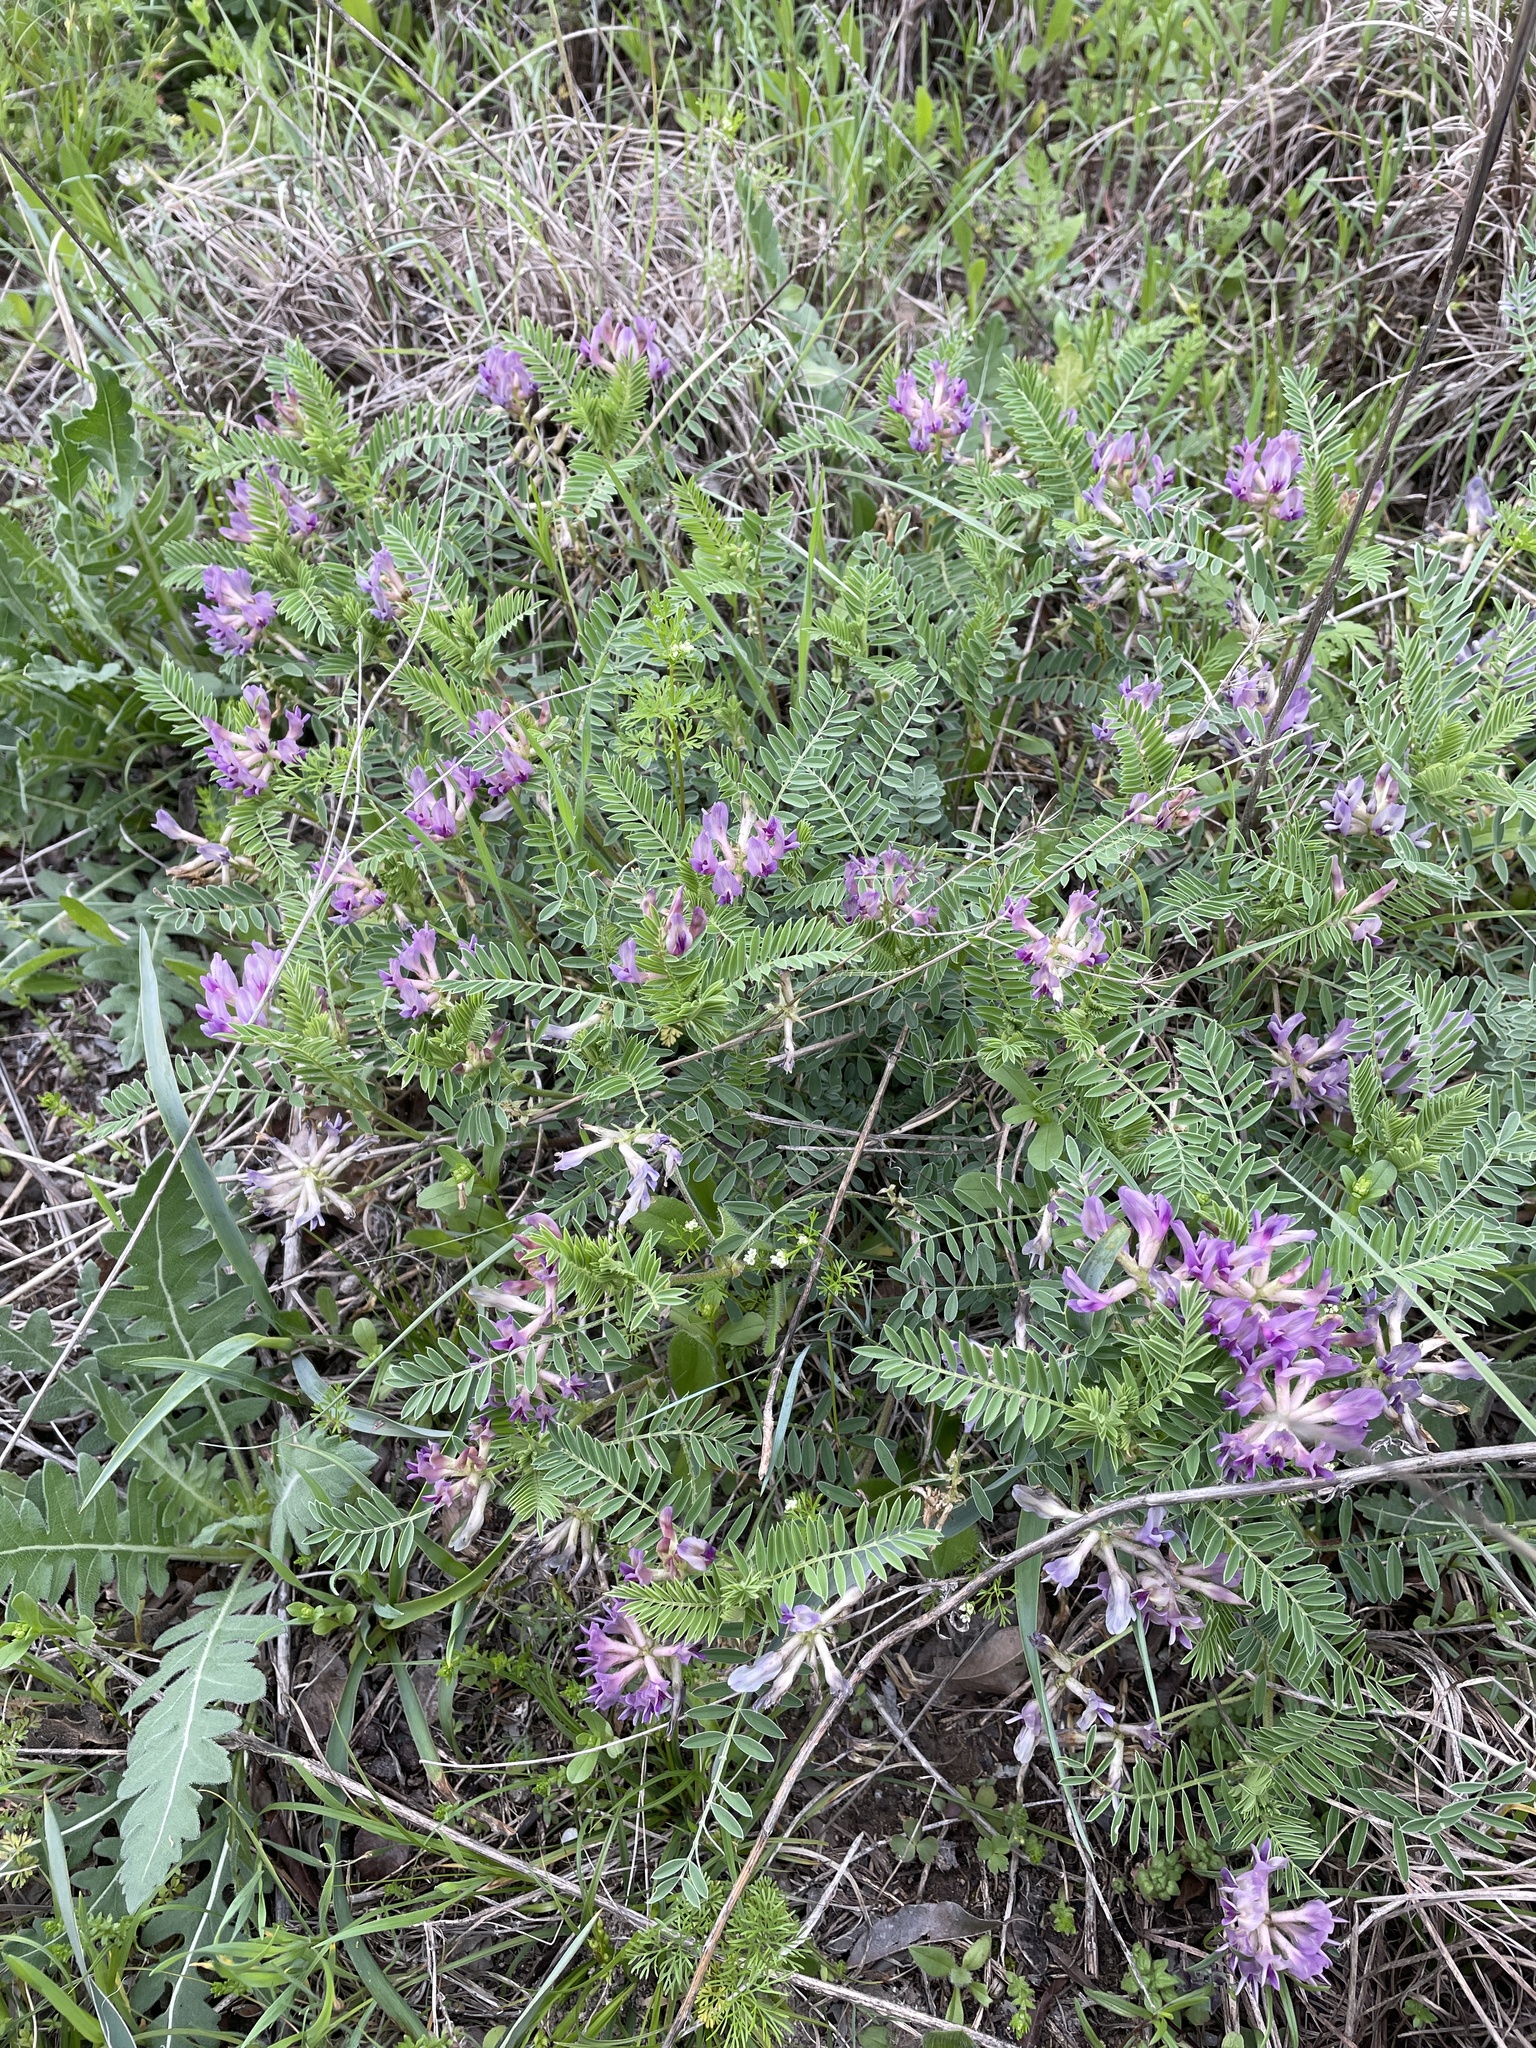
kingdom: Plantae
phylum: Tracheophyta
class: Magnoliopsida
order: Fabales
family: Fabaceae
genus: Astragalus
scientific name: Astragalus crassicarpus
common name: Ground-plum milk-vetch
